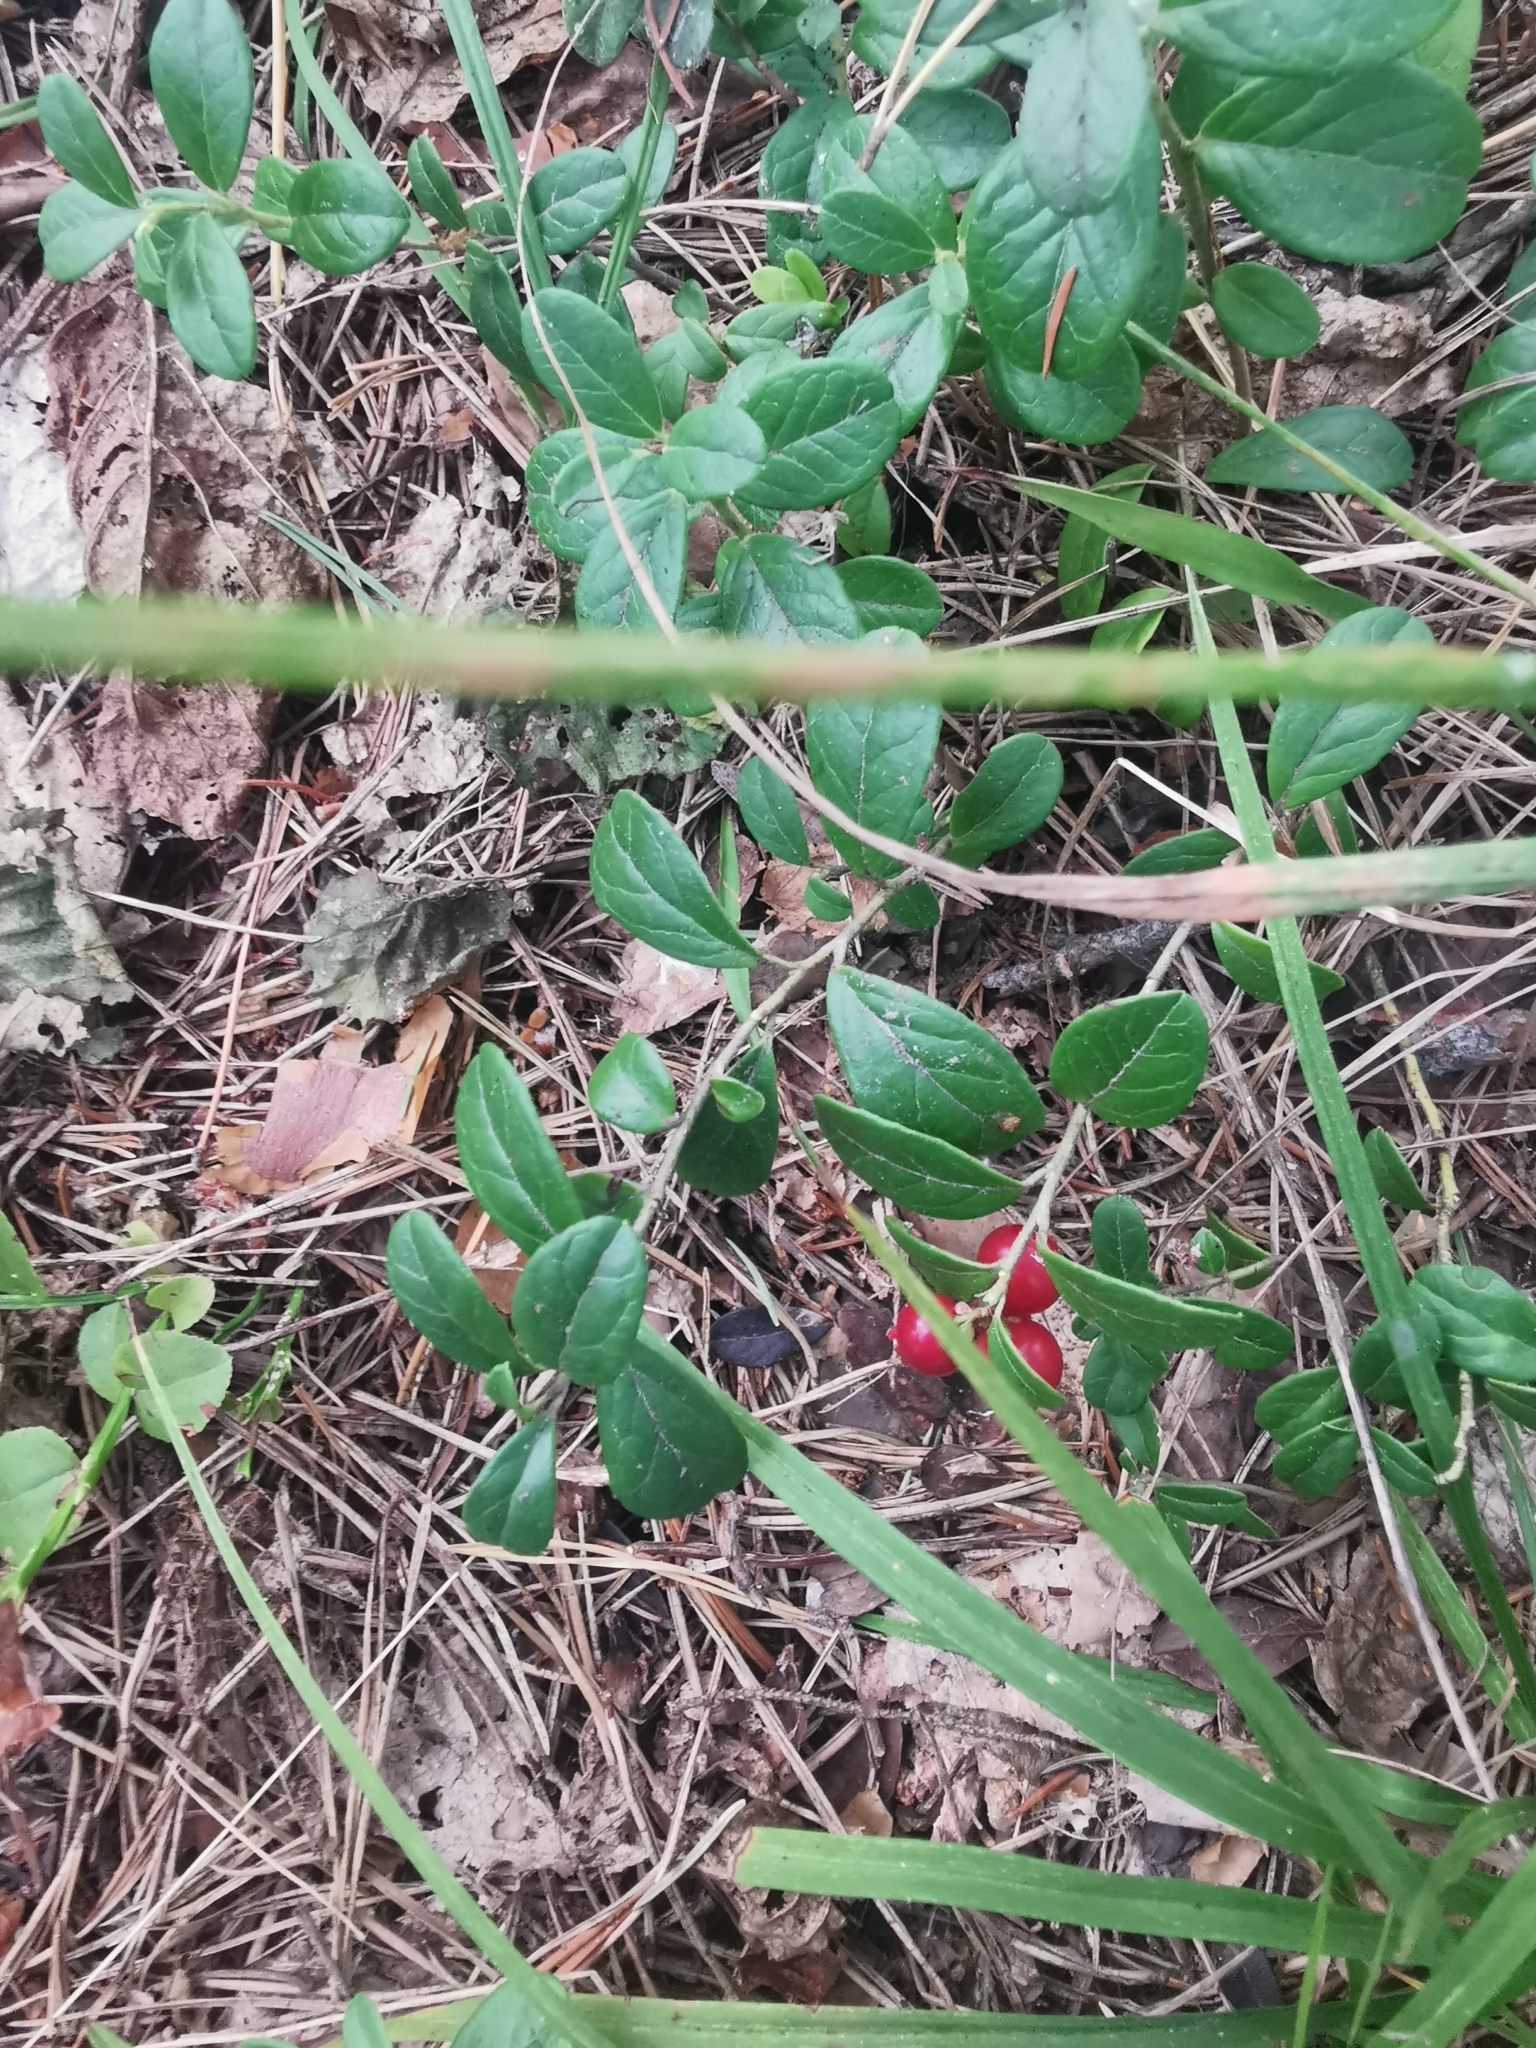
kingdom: Plantae
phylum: Tracheophyta
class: Magnoliopsida
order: Ericales
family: Ericaceae
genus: Vaccinium
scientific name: Vaccinium vitis-idaea
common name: Cowberry
